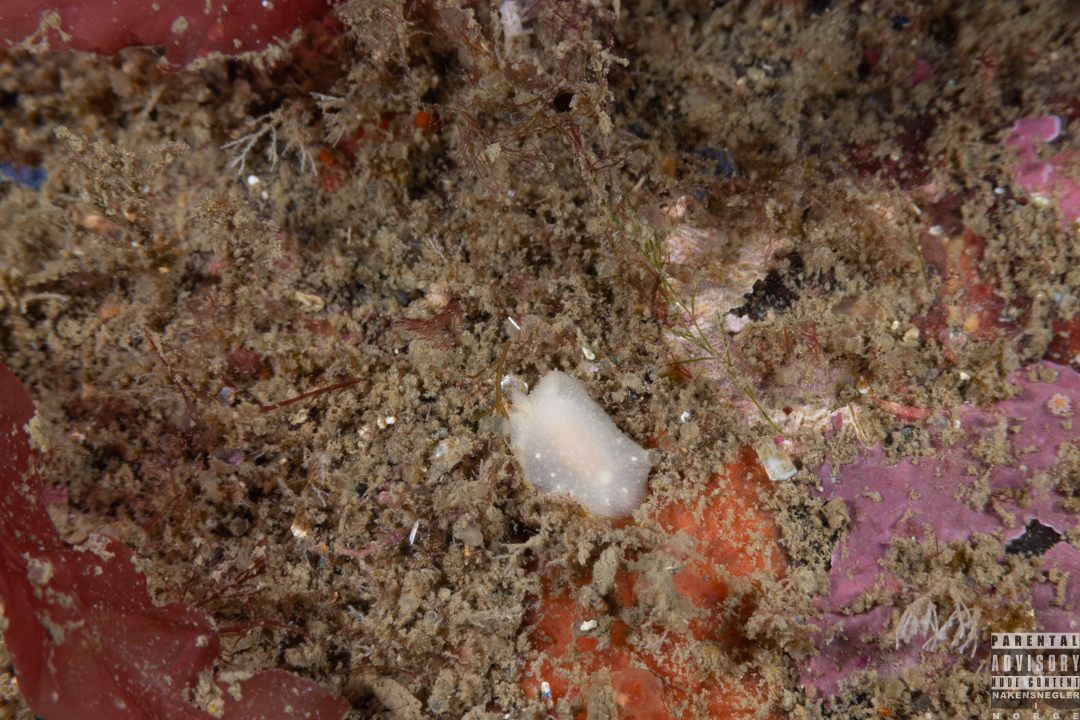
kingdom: Animalia
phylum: Mollusca
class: Gastropoda
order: Nudibranchia
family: Cadlinidae
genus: Cadlina
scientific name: Cadlina laevis
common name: White atlantic cadlina
